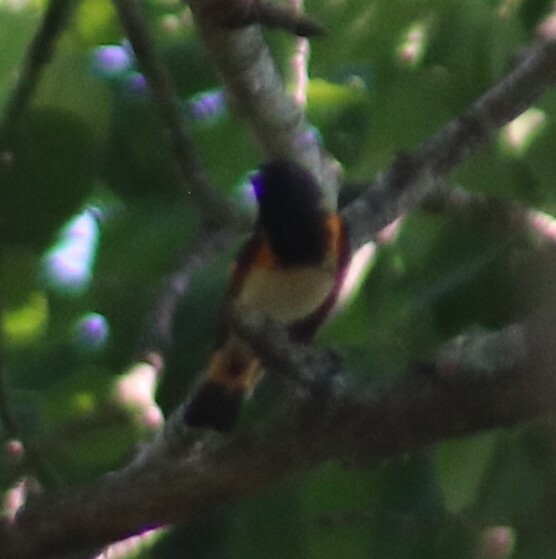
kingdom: Animalia
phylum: Chordata
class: Aves
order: Passeriformes
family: Parulidae
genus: Setophaga
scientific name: Setophaga ruticilla
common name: American redstart
